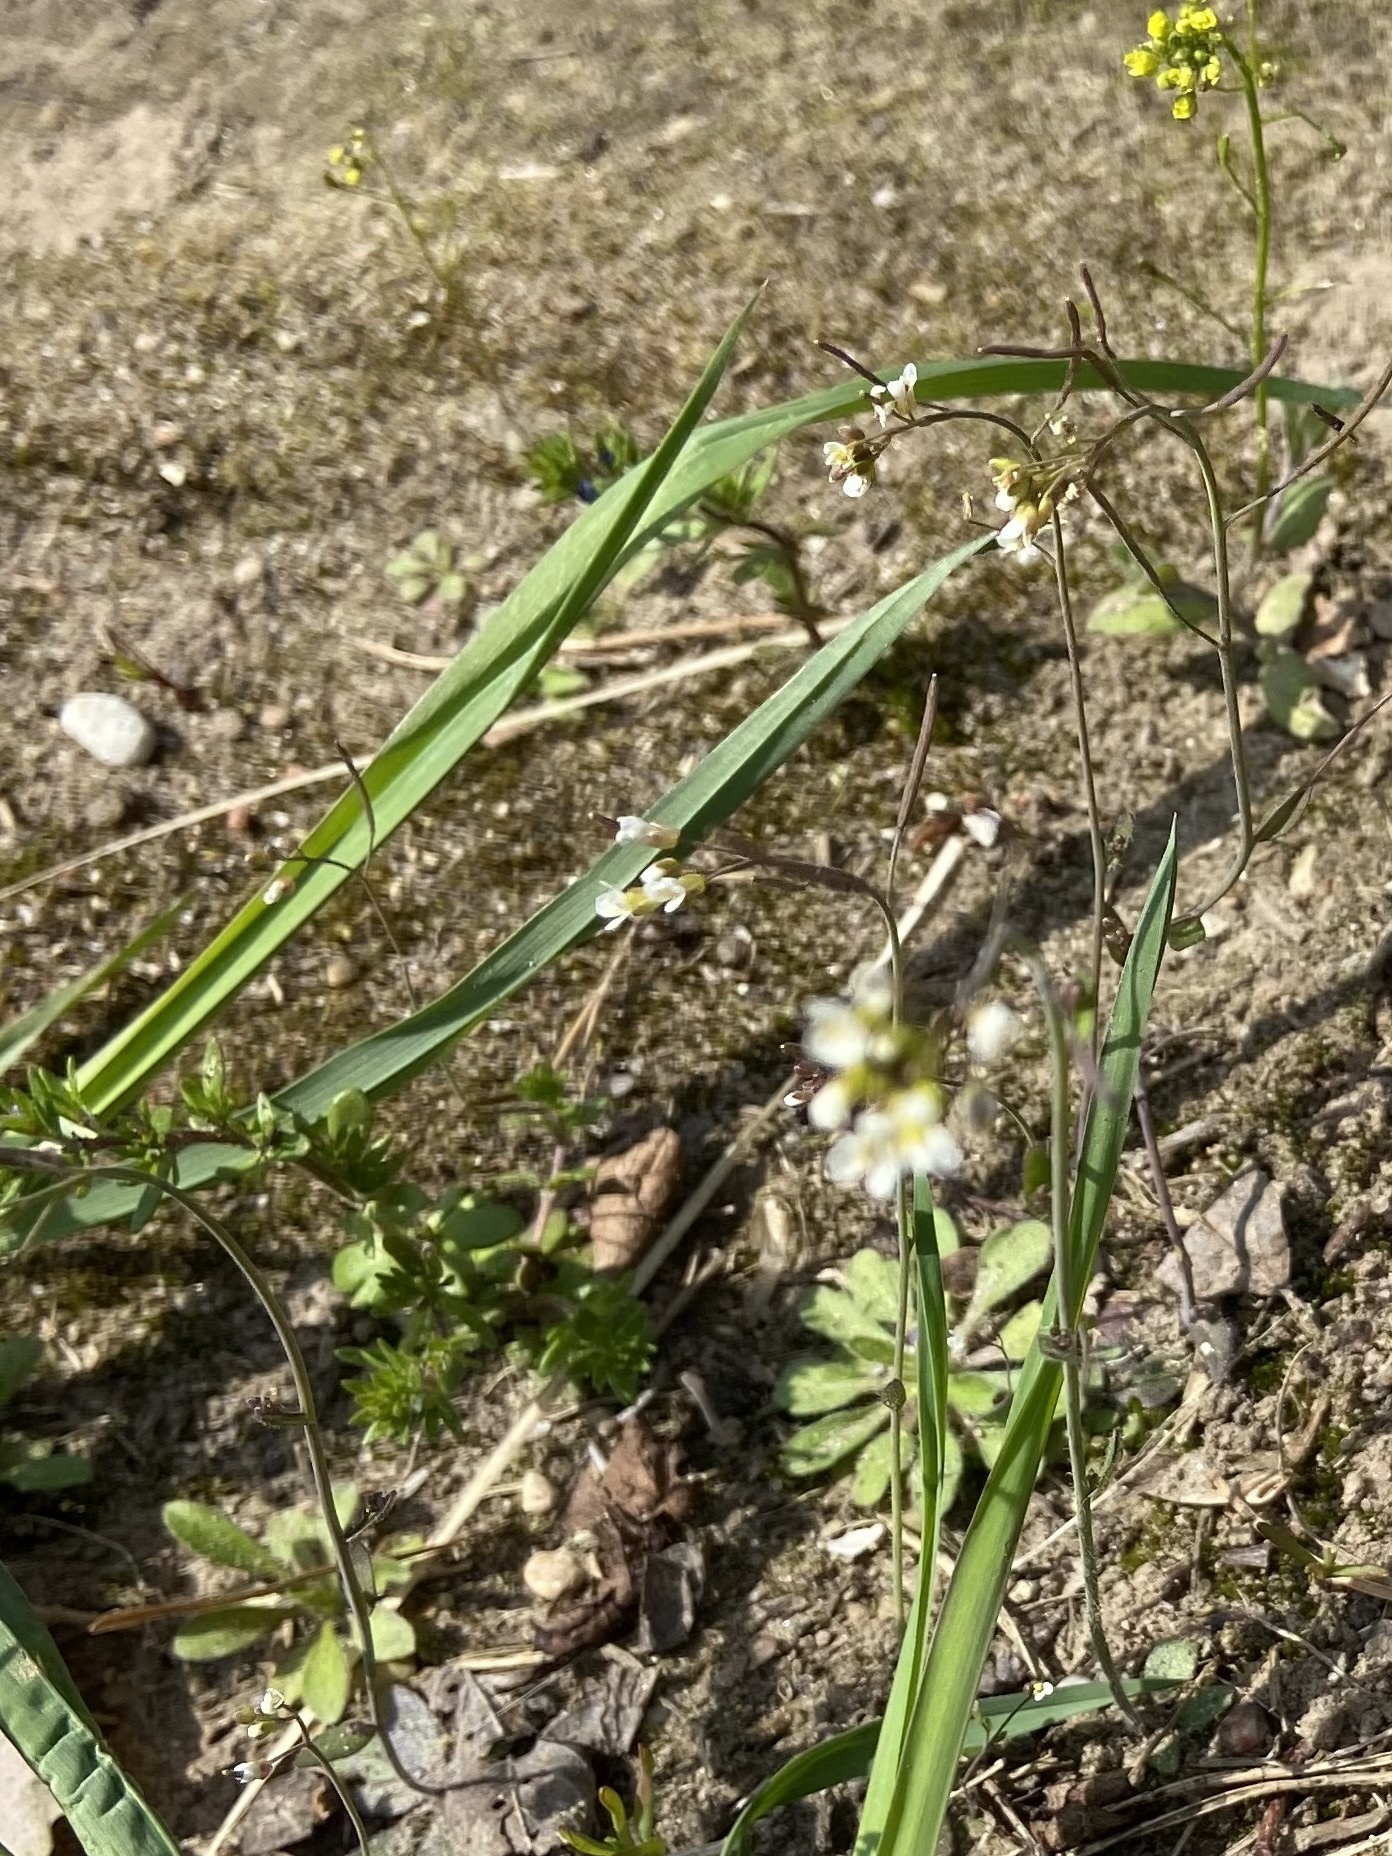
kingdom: Plantae
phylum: Tracheophyta
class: Magnoliopsida
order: Brassicales
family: Brassicaceae
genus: Draba
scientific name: Draba verna
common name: Spring draba
